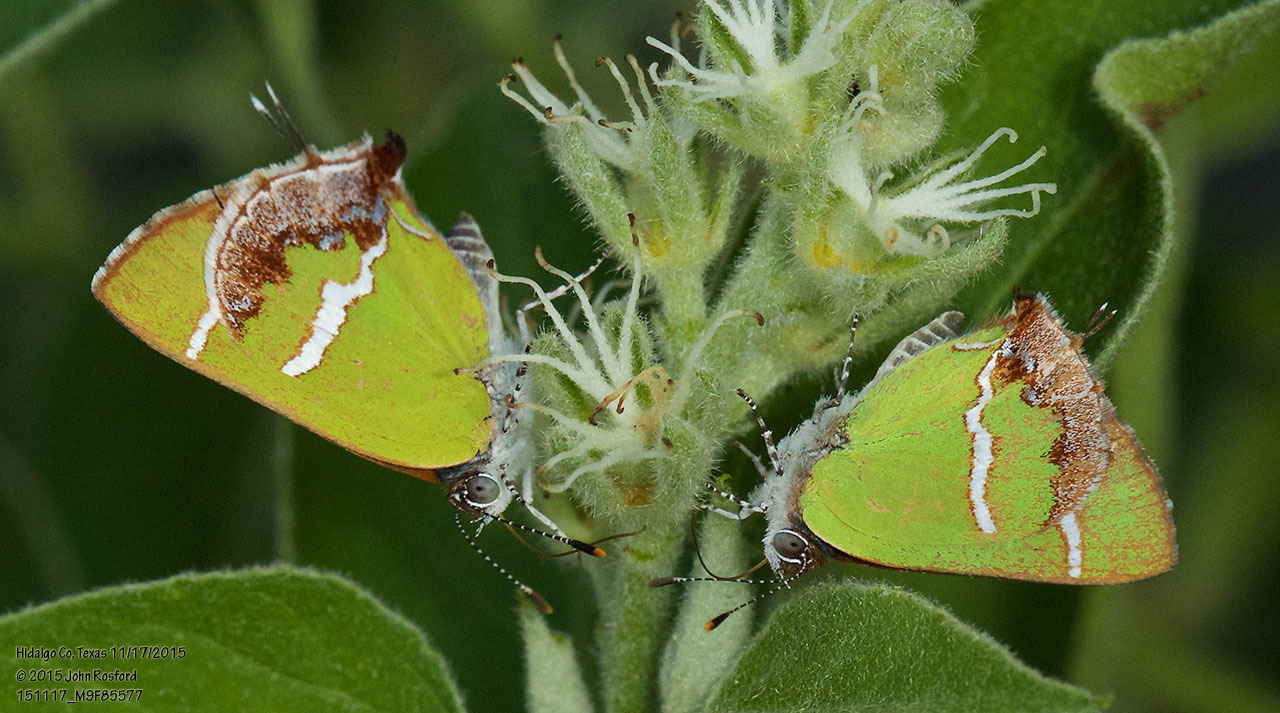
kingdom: Animalia
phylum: Arthropoda
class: Insecta
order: Lepidoptera
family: Lycaenidae
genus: Chlorostrymon
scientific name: Chlorostrymon simaethis
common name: Silver-banded hairstreak
